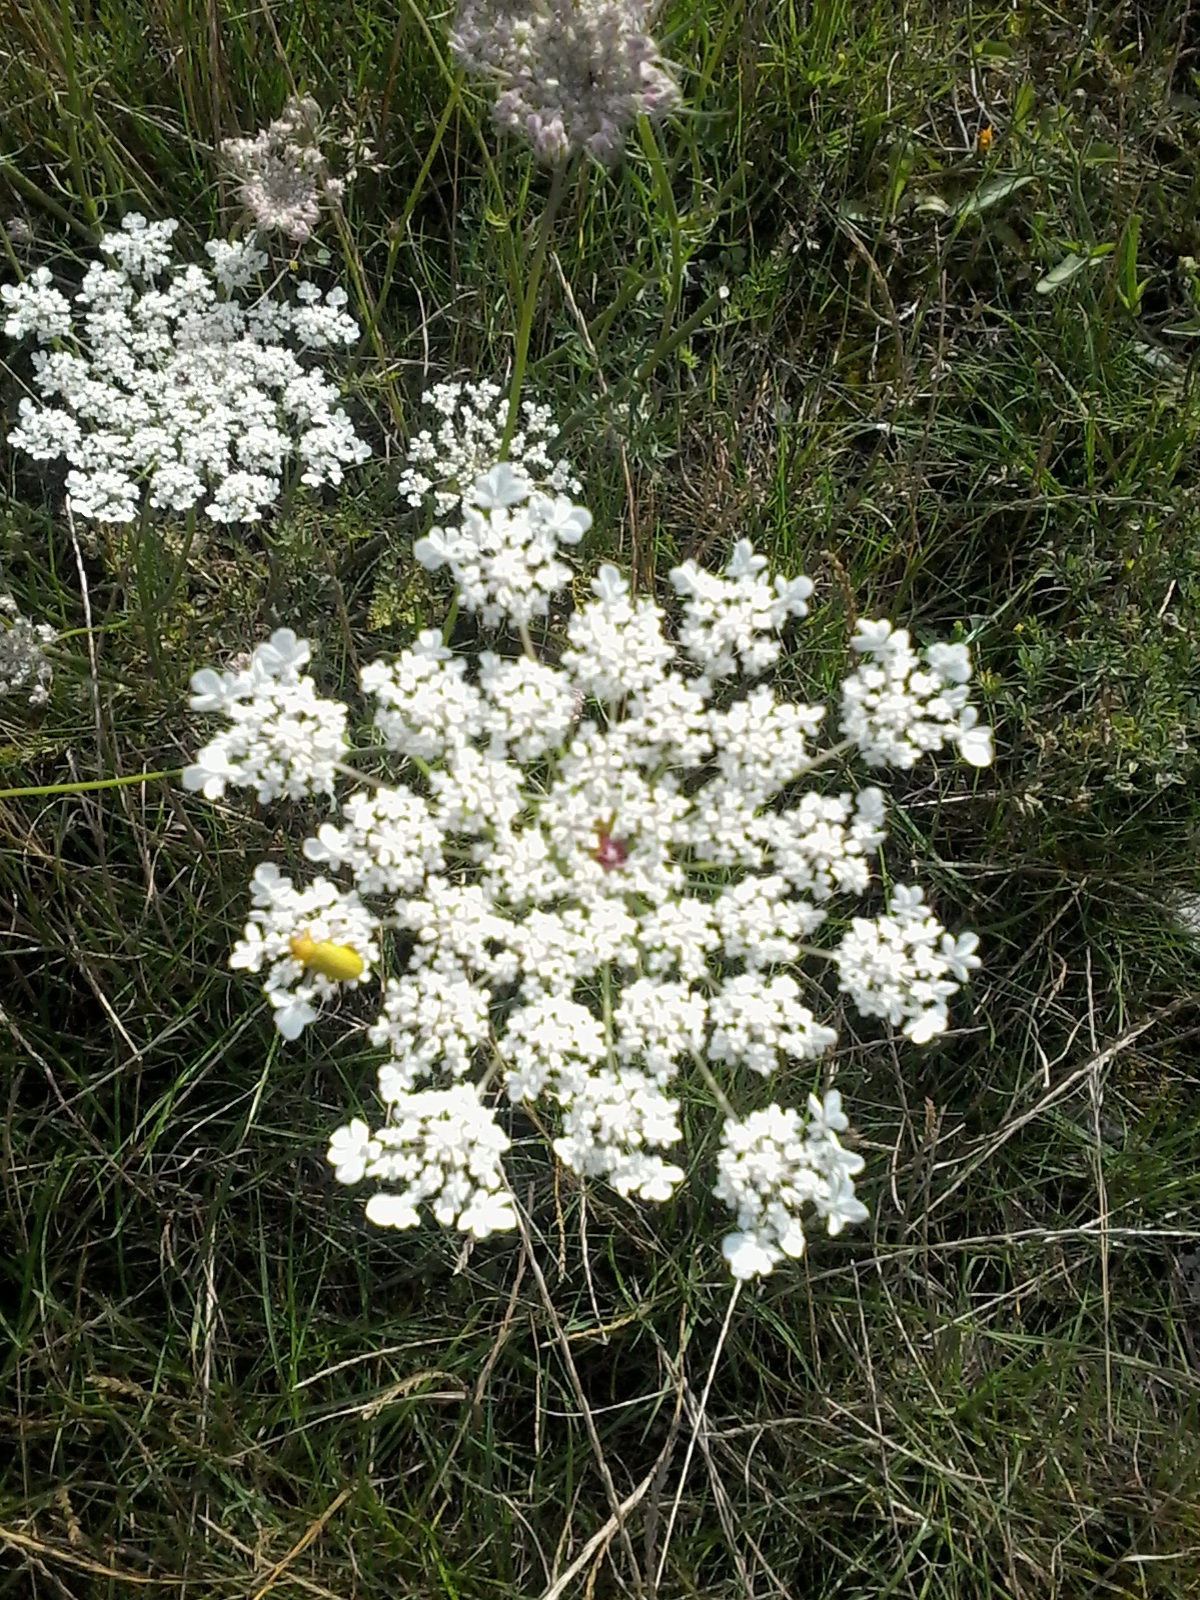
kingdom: Plantae
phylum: Tracheophyta
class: Magnoliopsida
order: Apiales
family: Apiaceae
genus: Daucus
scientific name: Daucus carota
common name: Wild carrot
